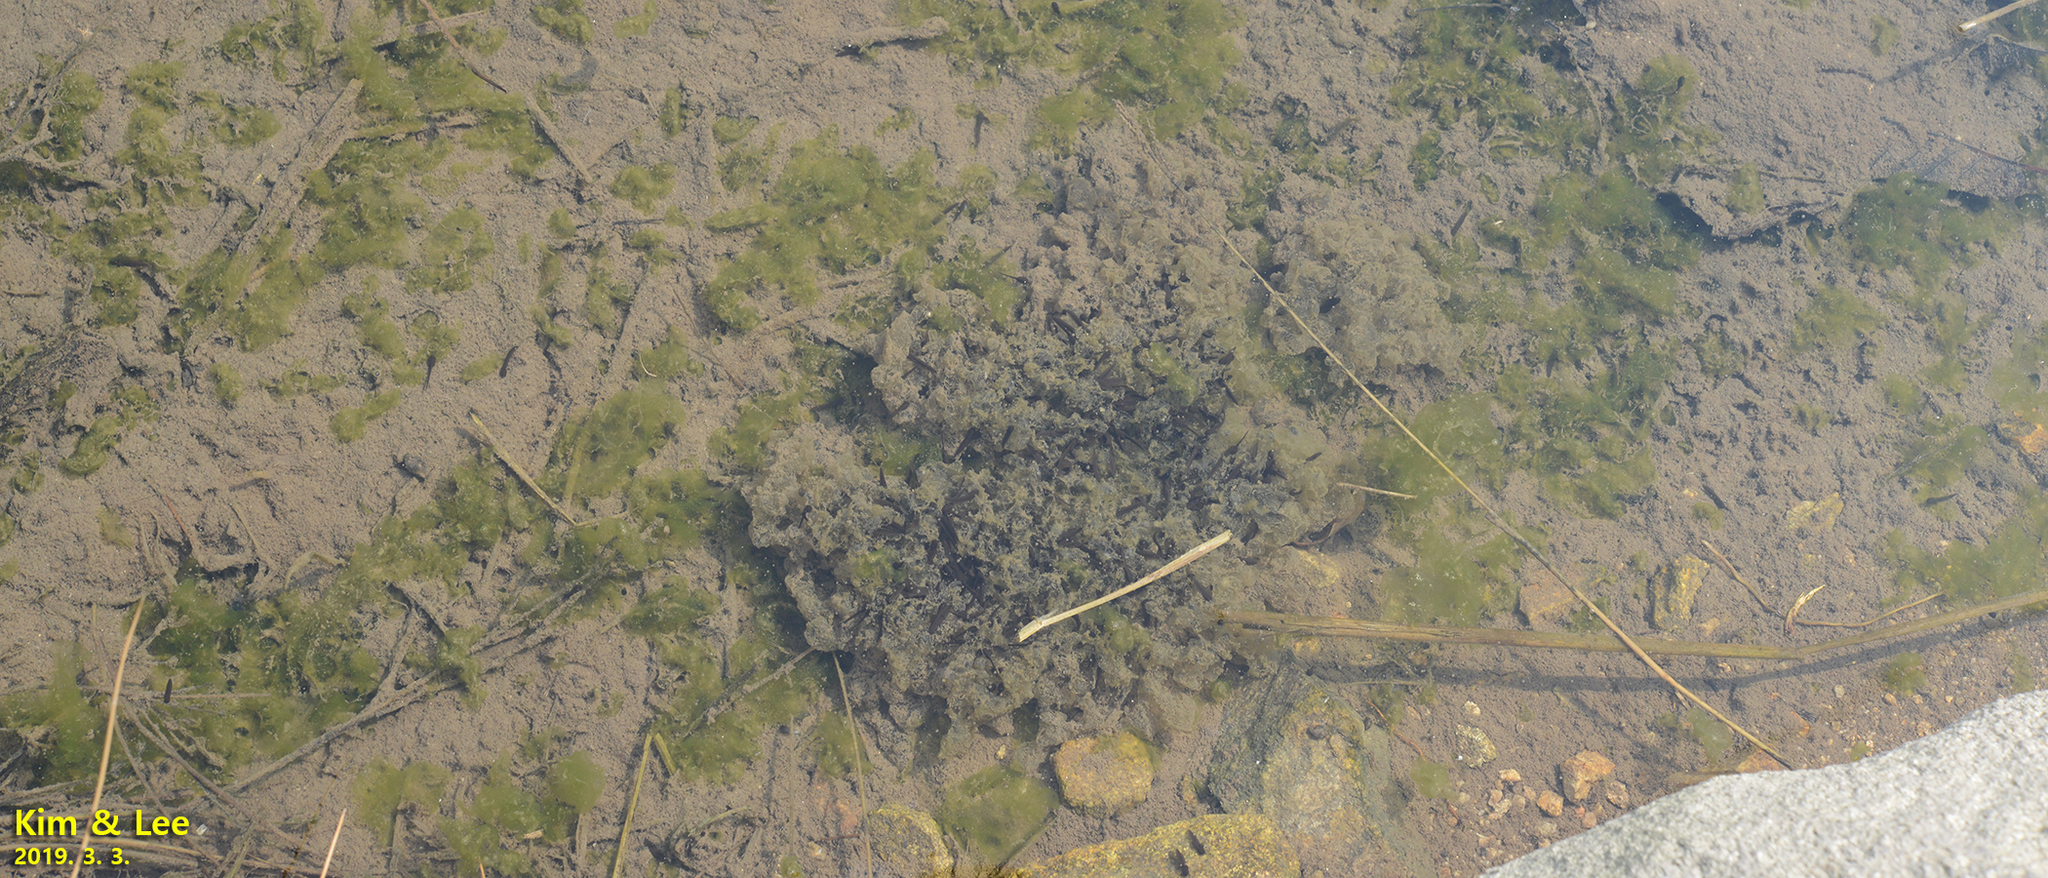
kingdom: Animalia
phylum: Chordata
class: Amphibia
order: Anura
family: Ranidae
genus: Rana
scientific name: Rana uenoi
